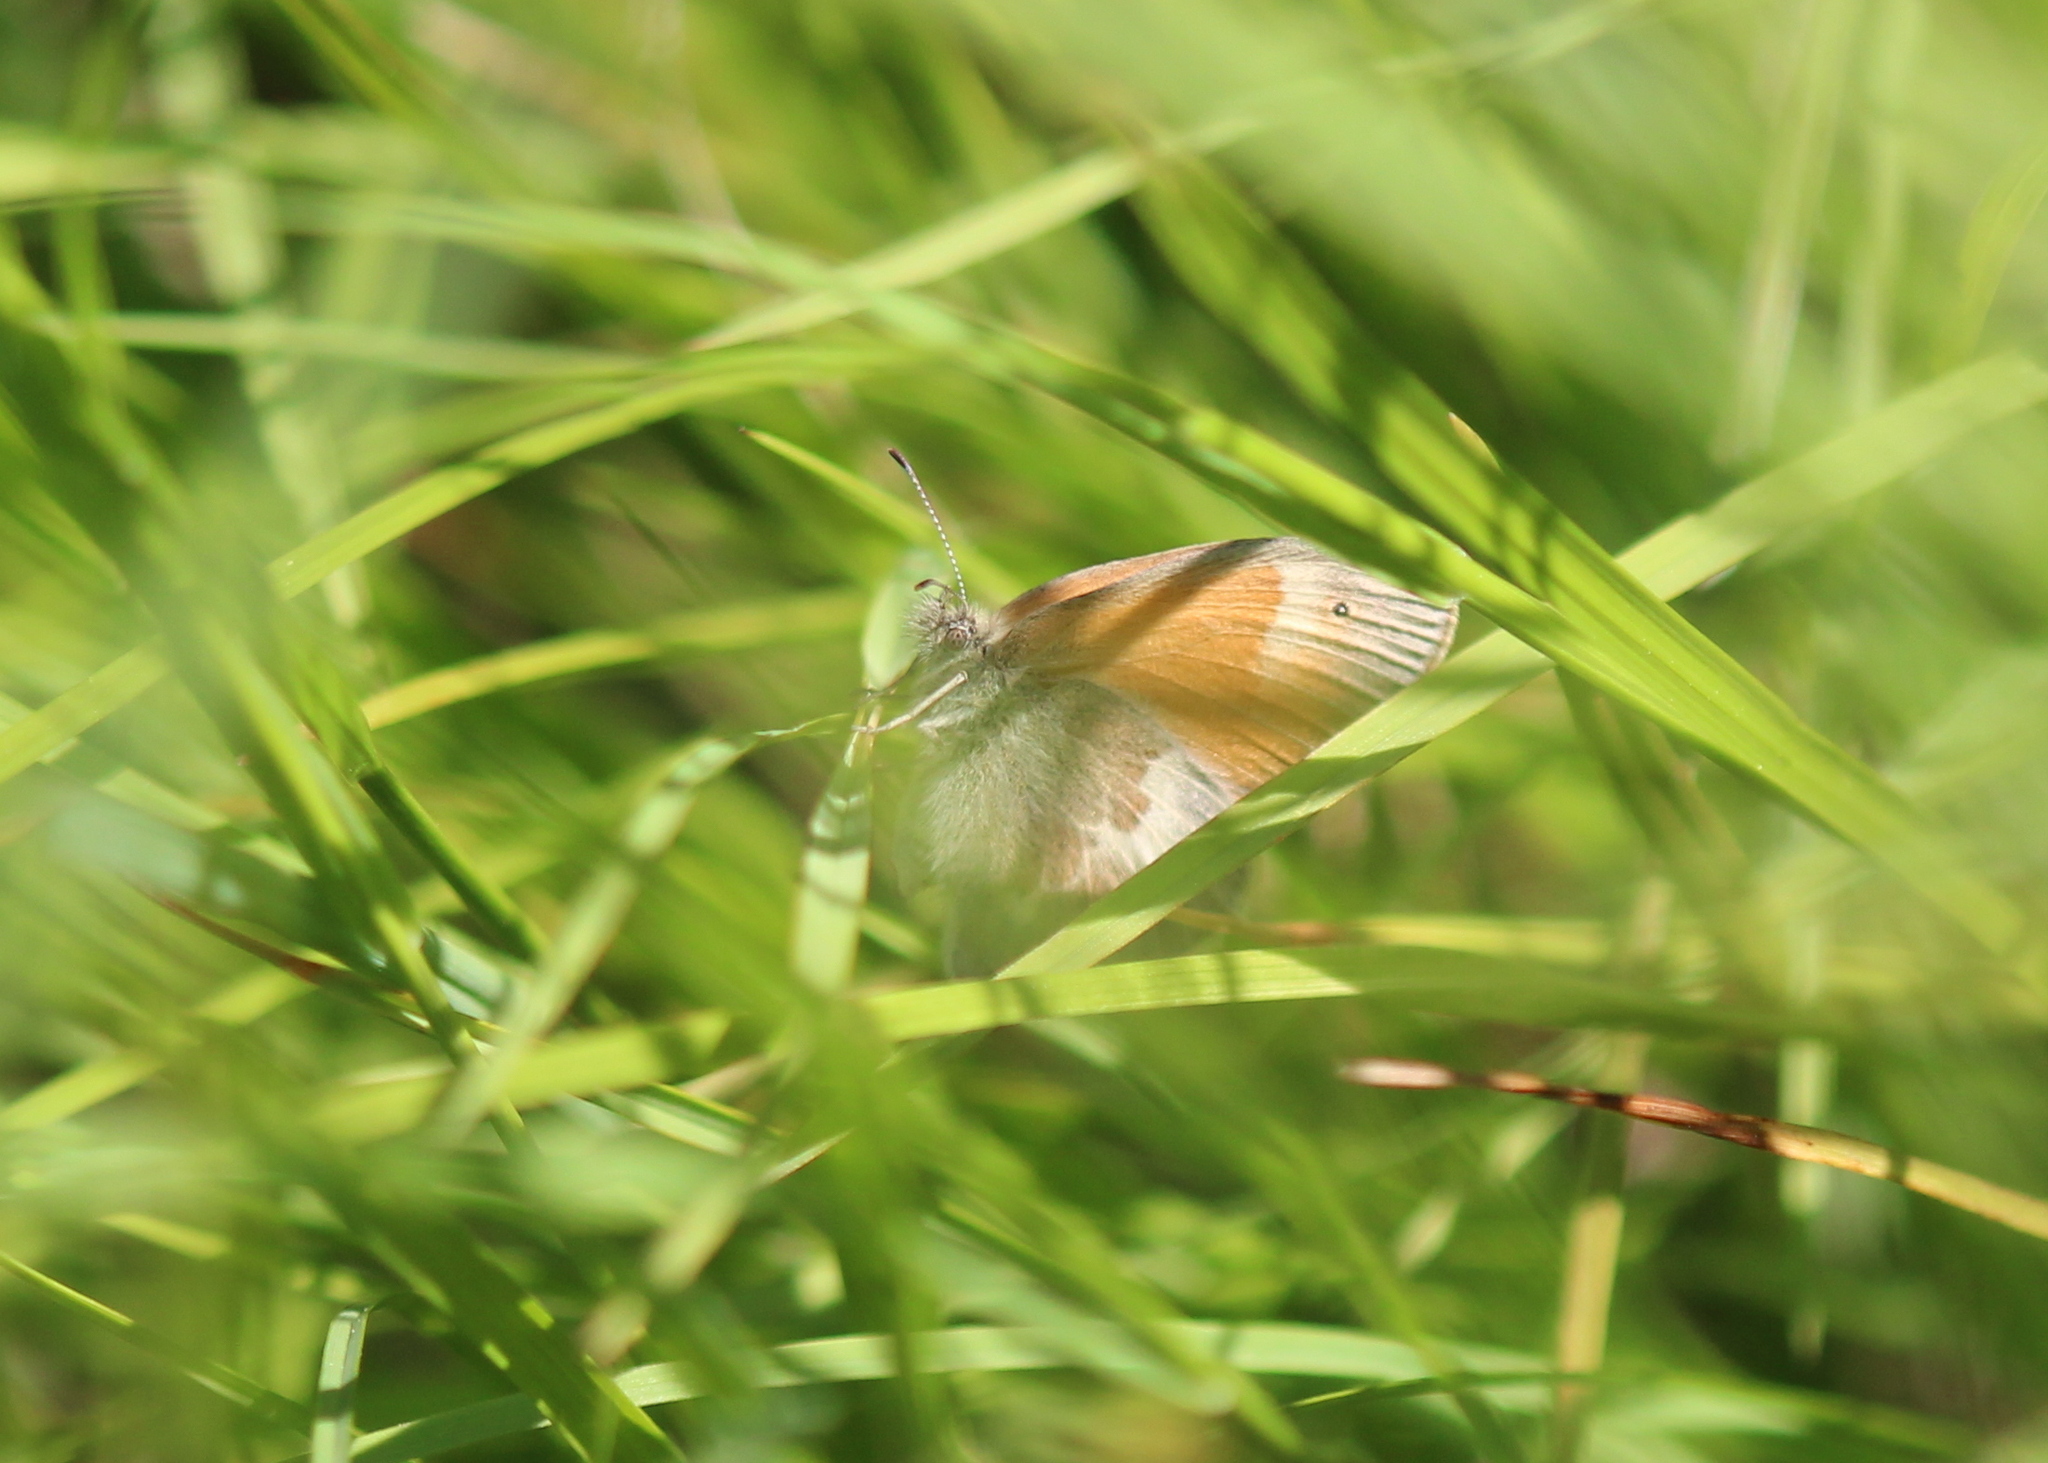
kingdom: Animalia
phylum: Arthropoda
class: Insecta
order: Lepidoptera
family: Nymphalidae
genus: Coenonympha
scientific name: Coenonympha california
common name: Common ringlet
